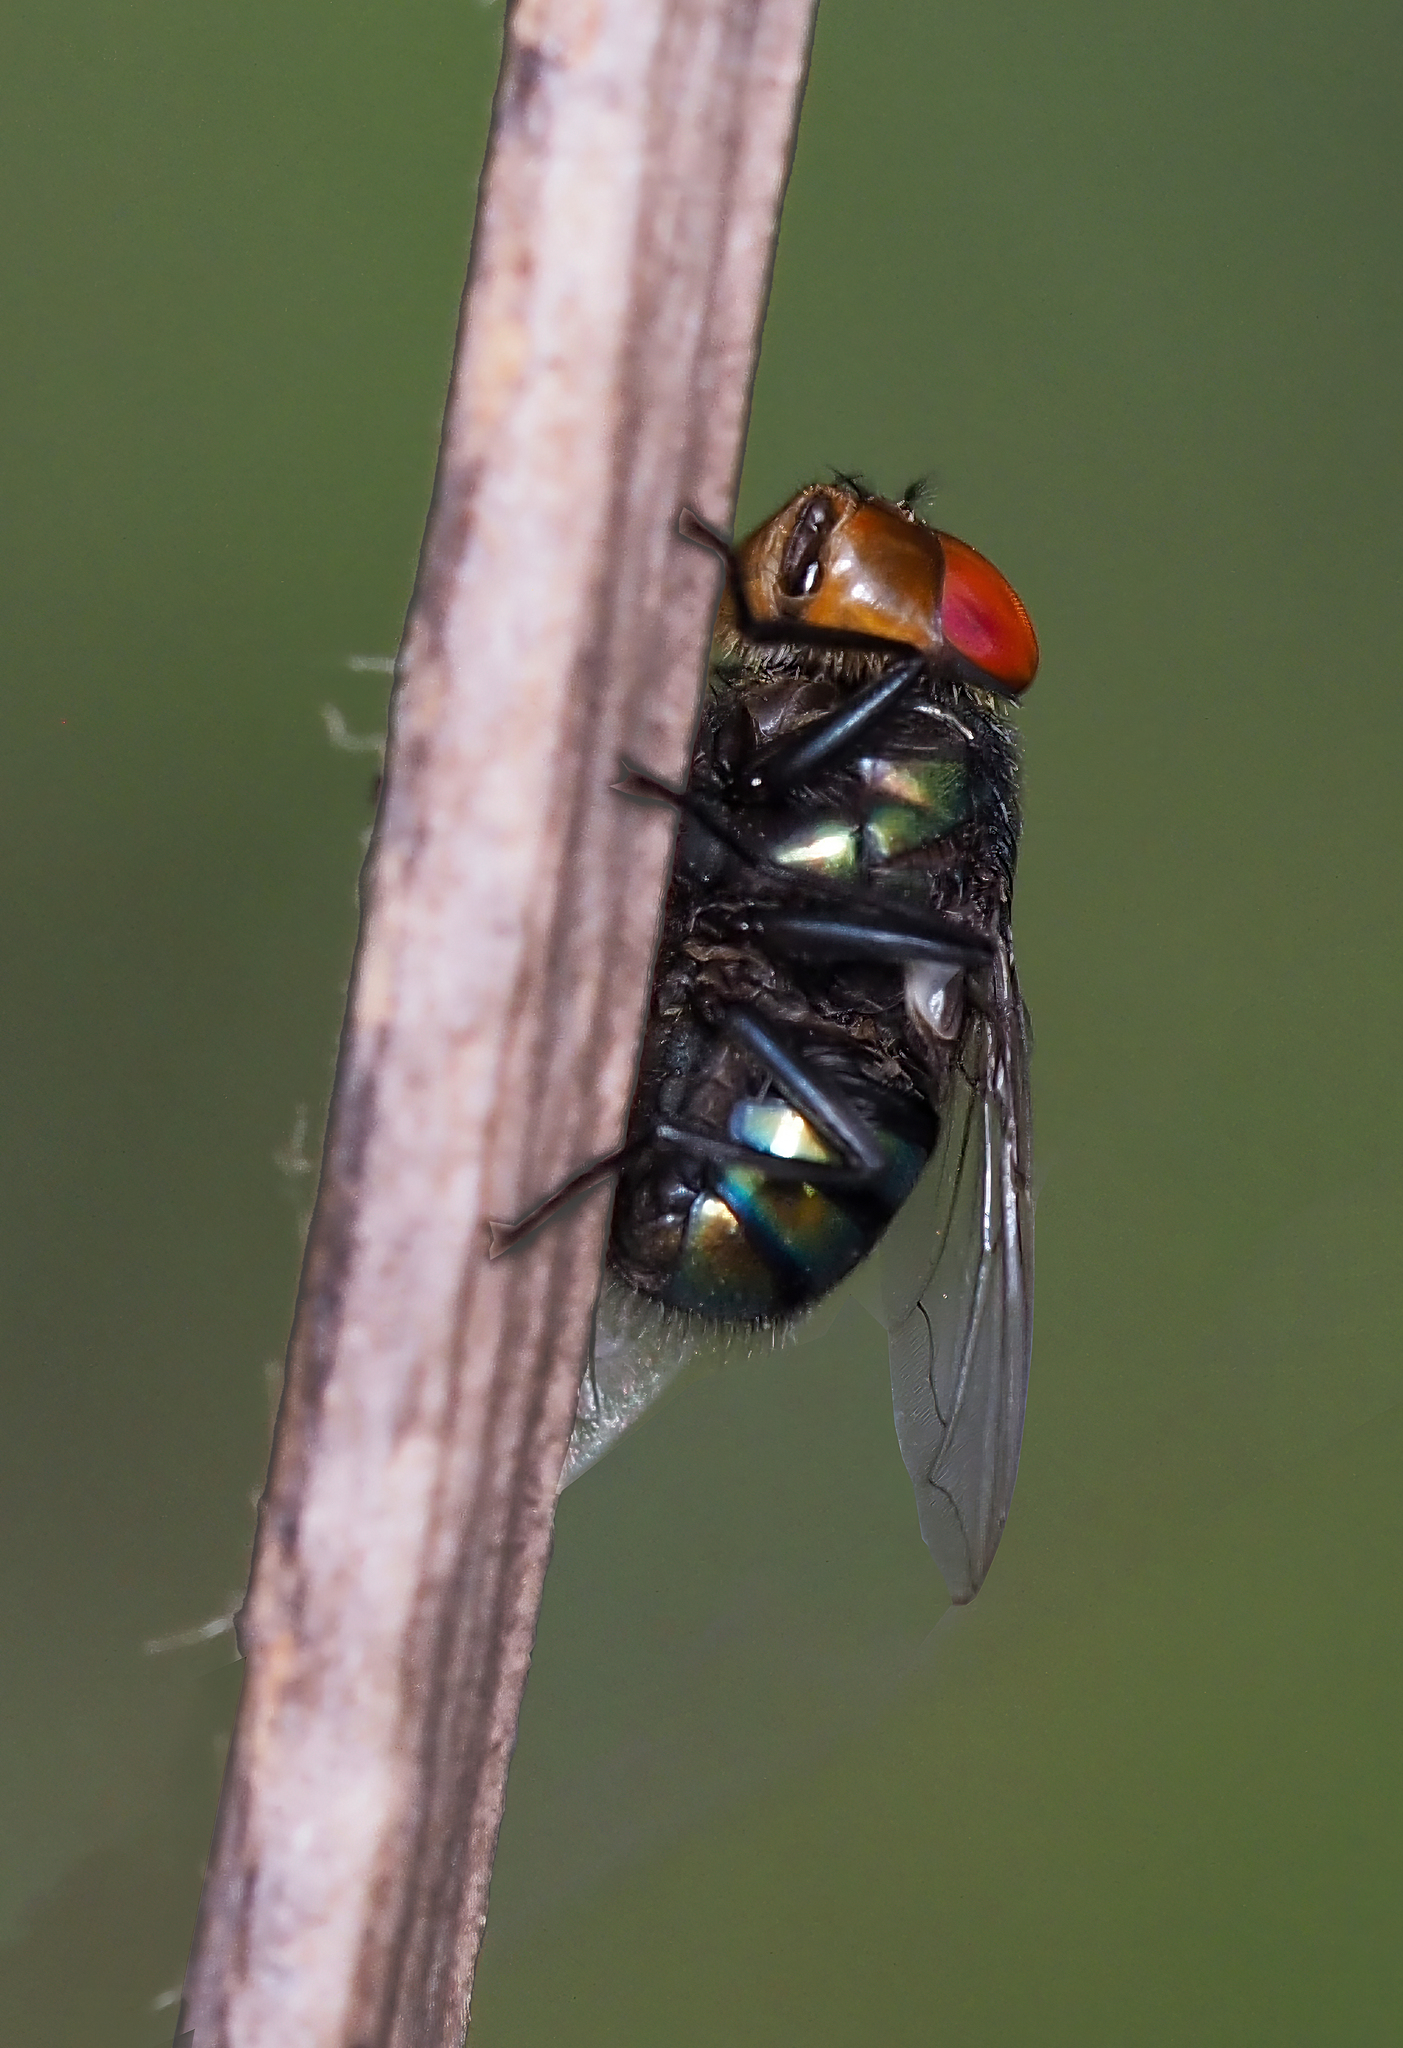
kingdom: Animalia
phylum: Arthropoda
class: Insecta
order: Diptera
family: Calliphoridae
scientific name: Calliphoridae
